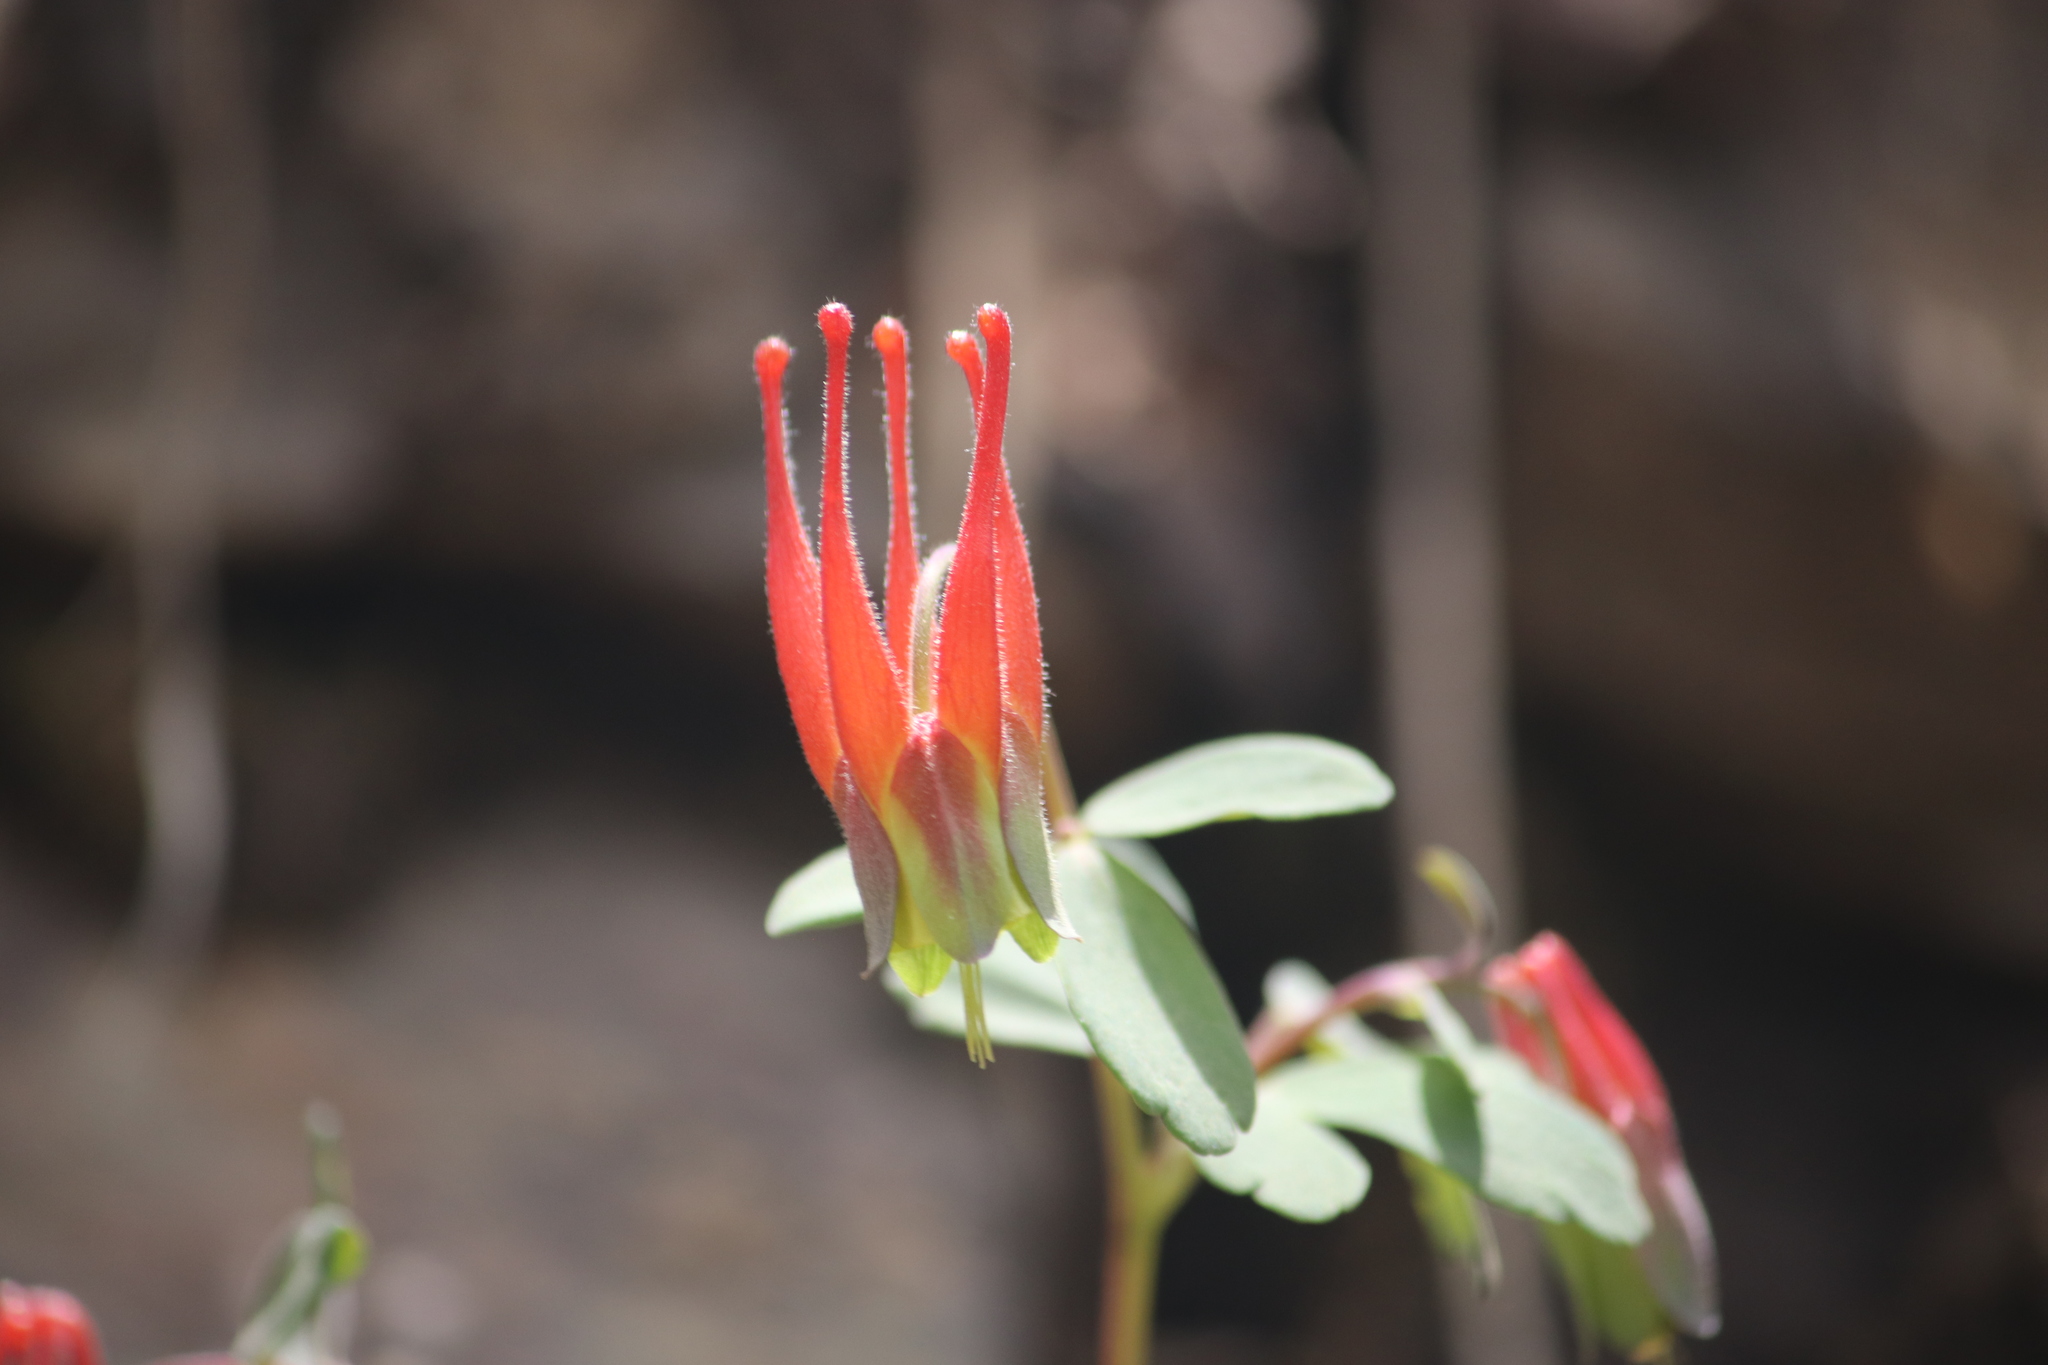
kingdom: Plantae
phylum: Tracheophyta
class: Magnoliopsida
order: Ranunculales
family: Ranunculaceae
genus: Aquilegia
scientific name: Aquilegia elegantula
